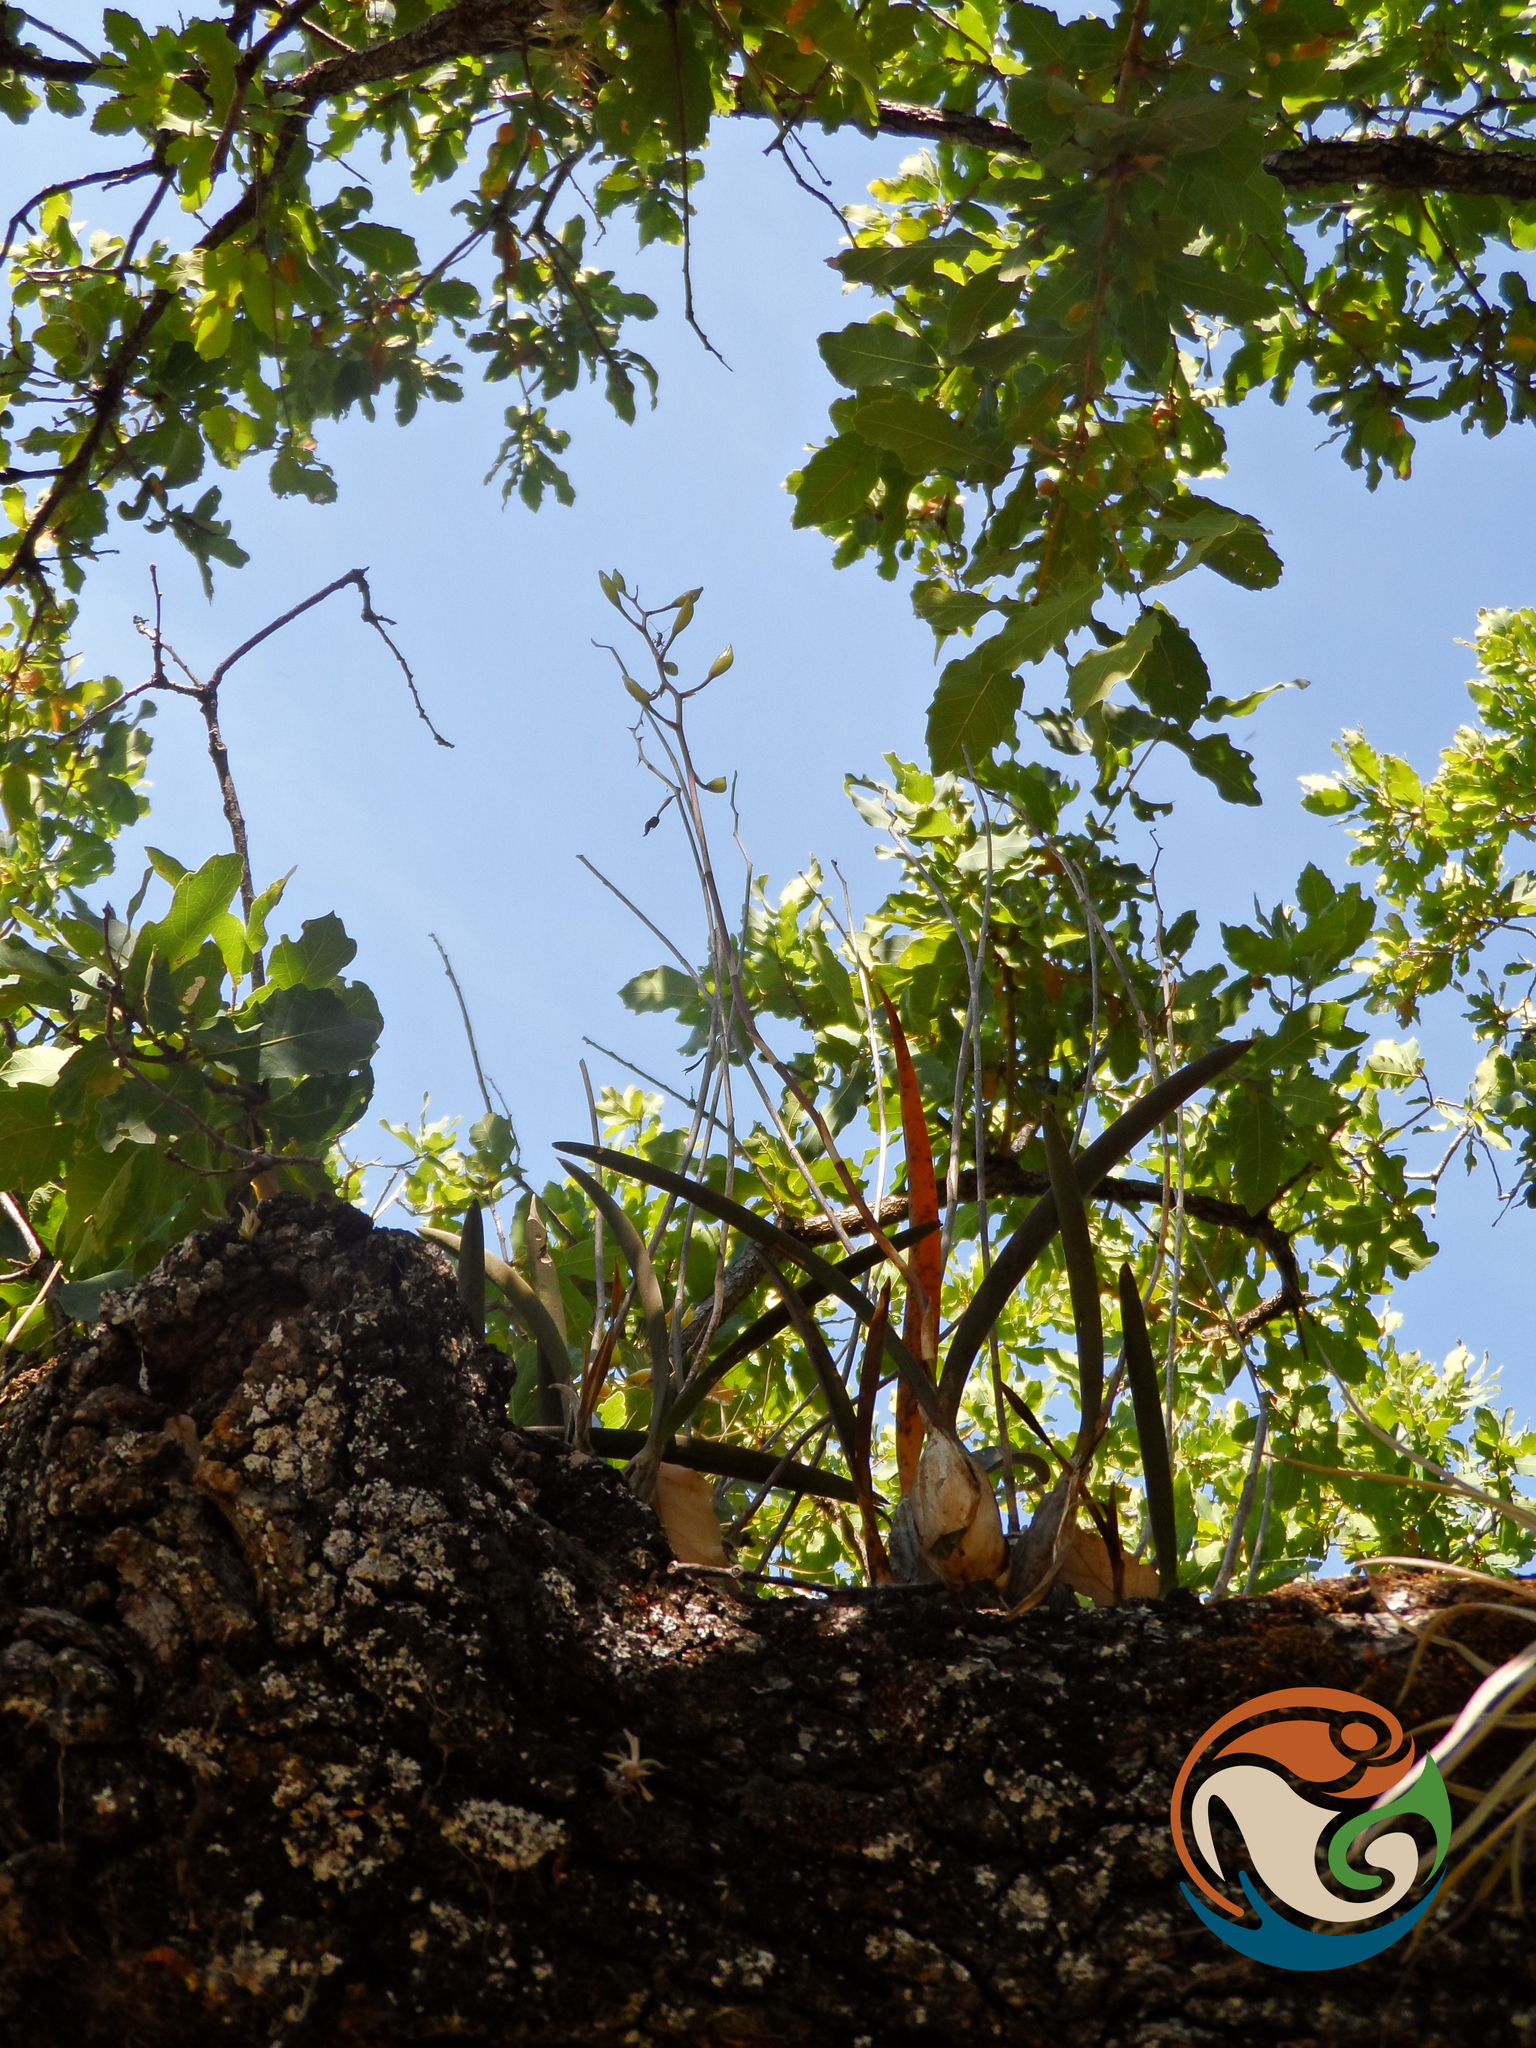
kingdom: Plantae
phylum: Tracheophyta
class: Liliopsida
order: Asparagales
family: Orchidaceae
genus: Laelia
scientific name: Laelia albida
